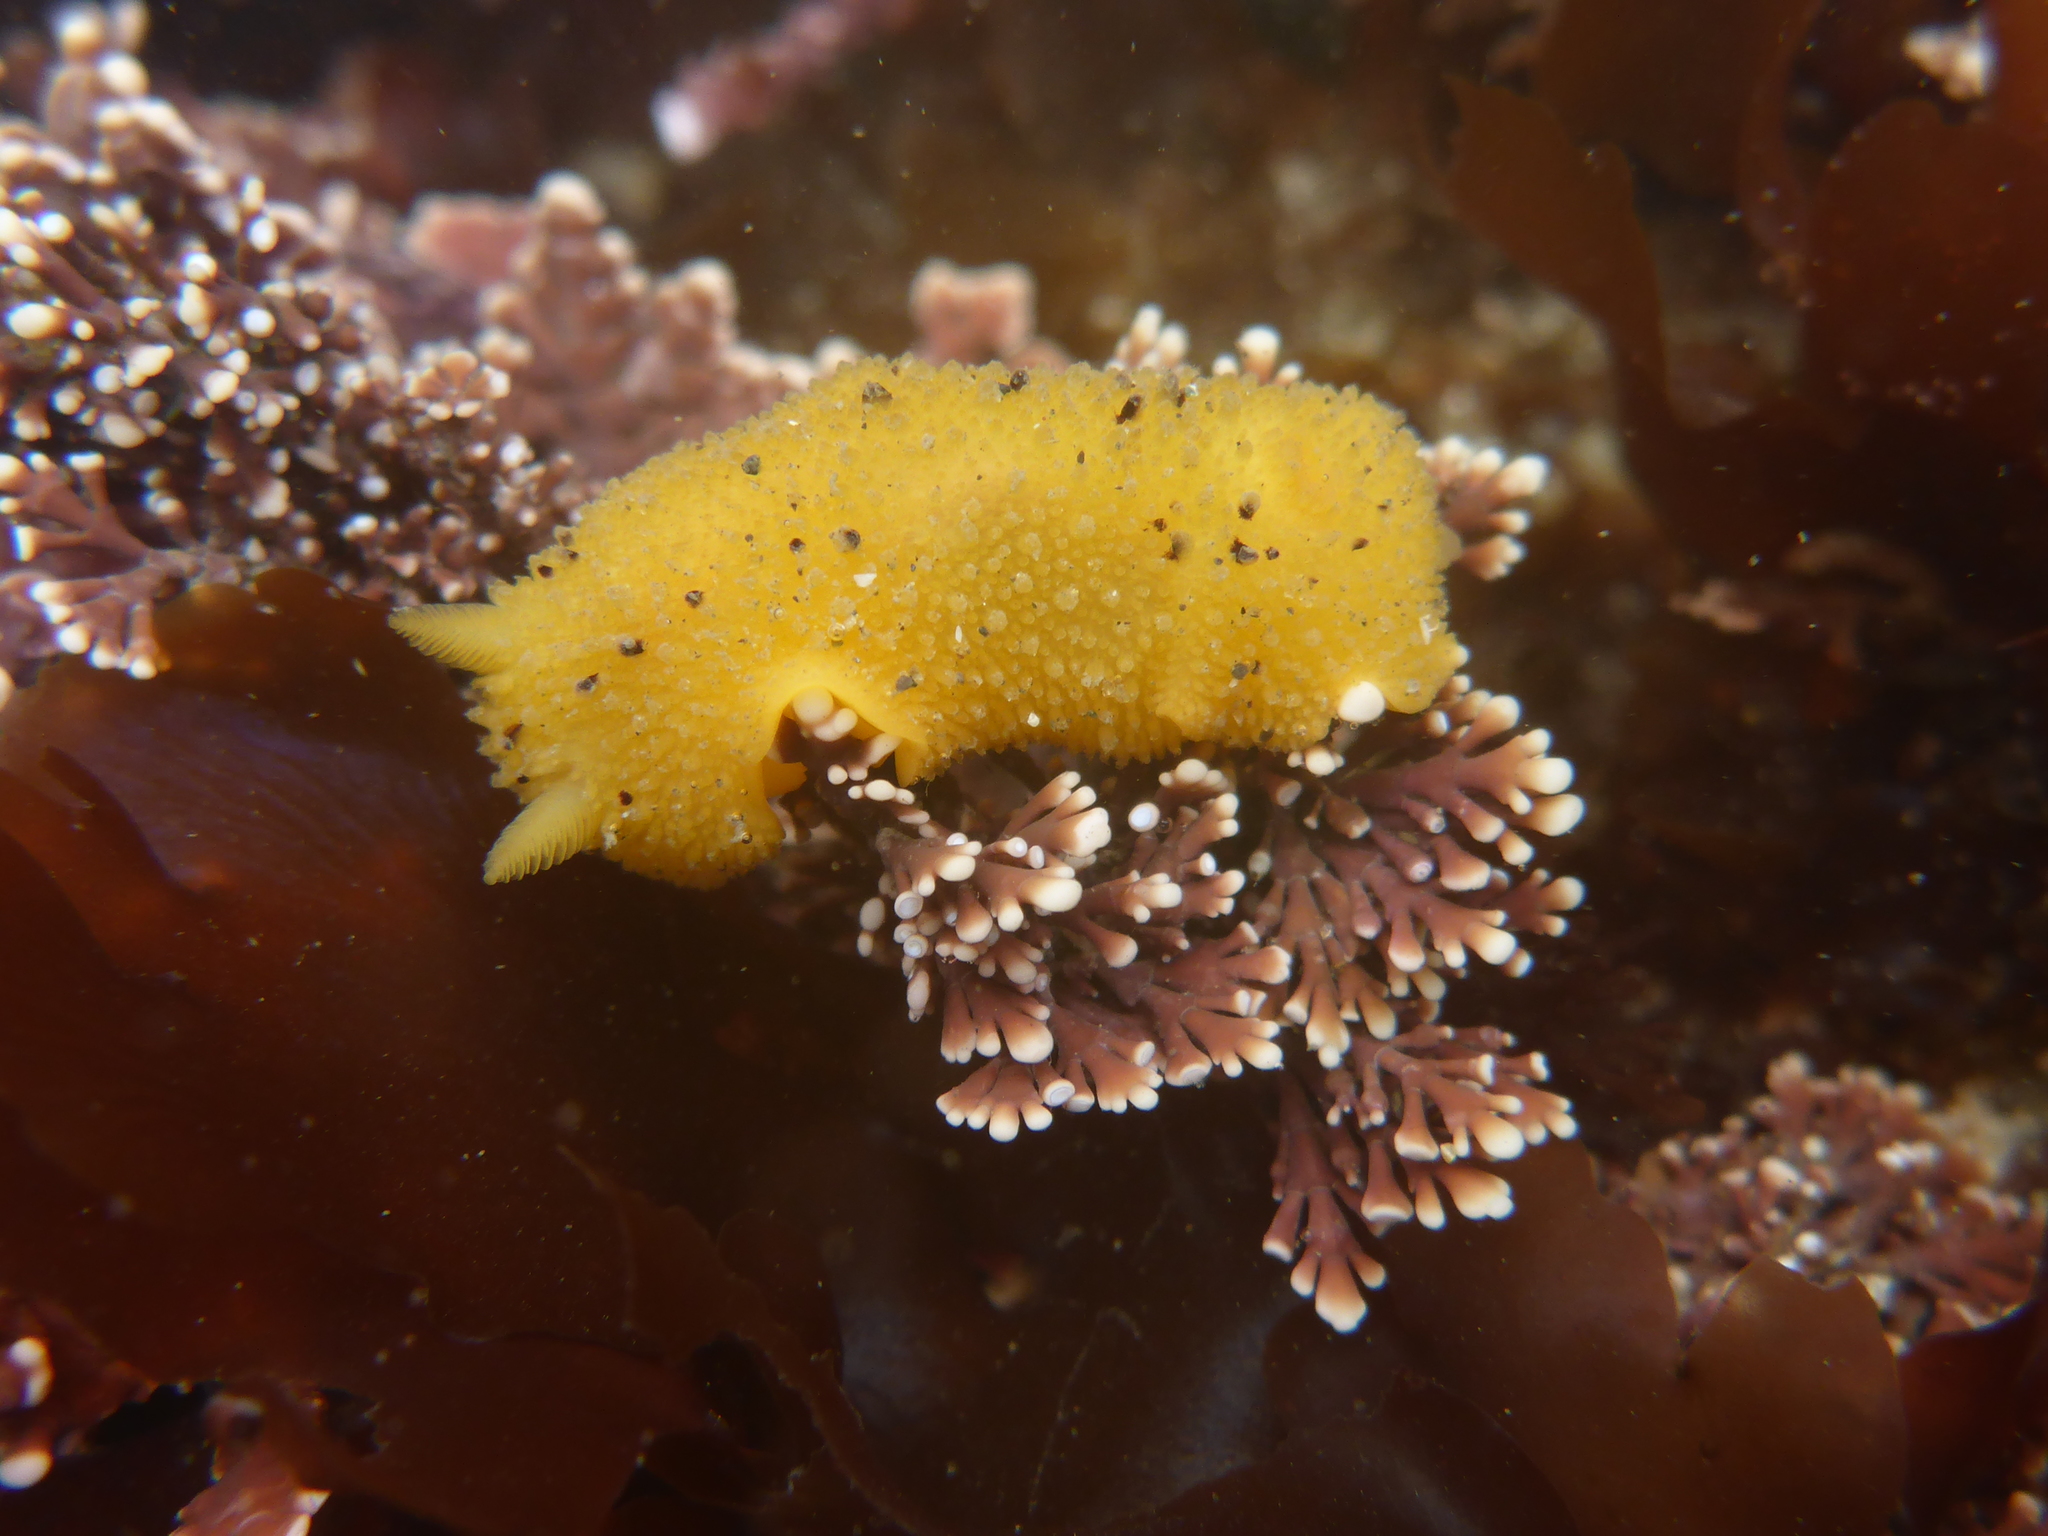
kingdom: Animalia
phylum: Mollusca
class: Gastropoda
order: Nudibranchia
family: Dorididae
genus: Doris
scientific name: Doris montereyensis
